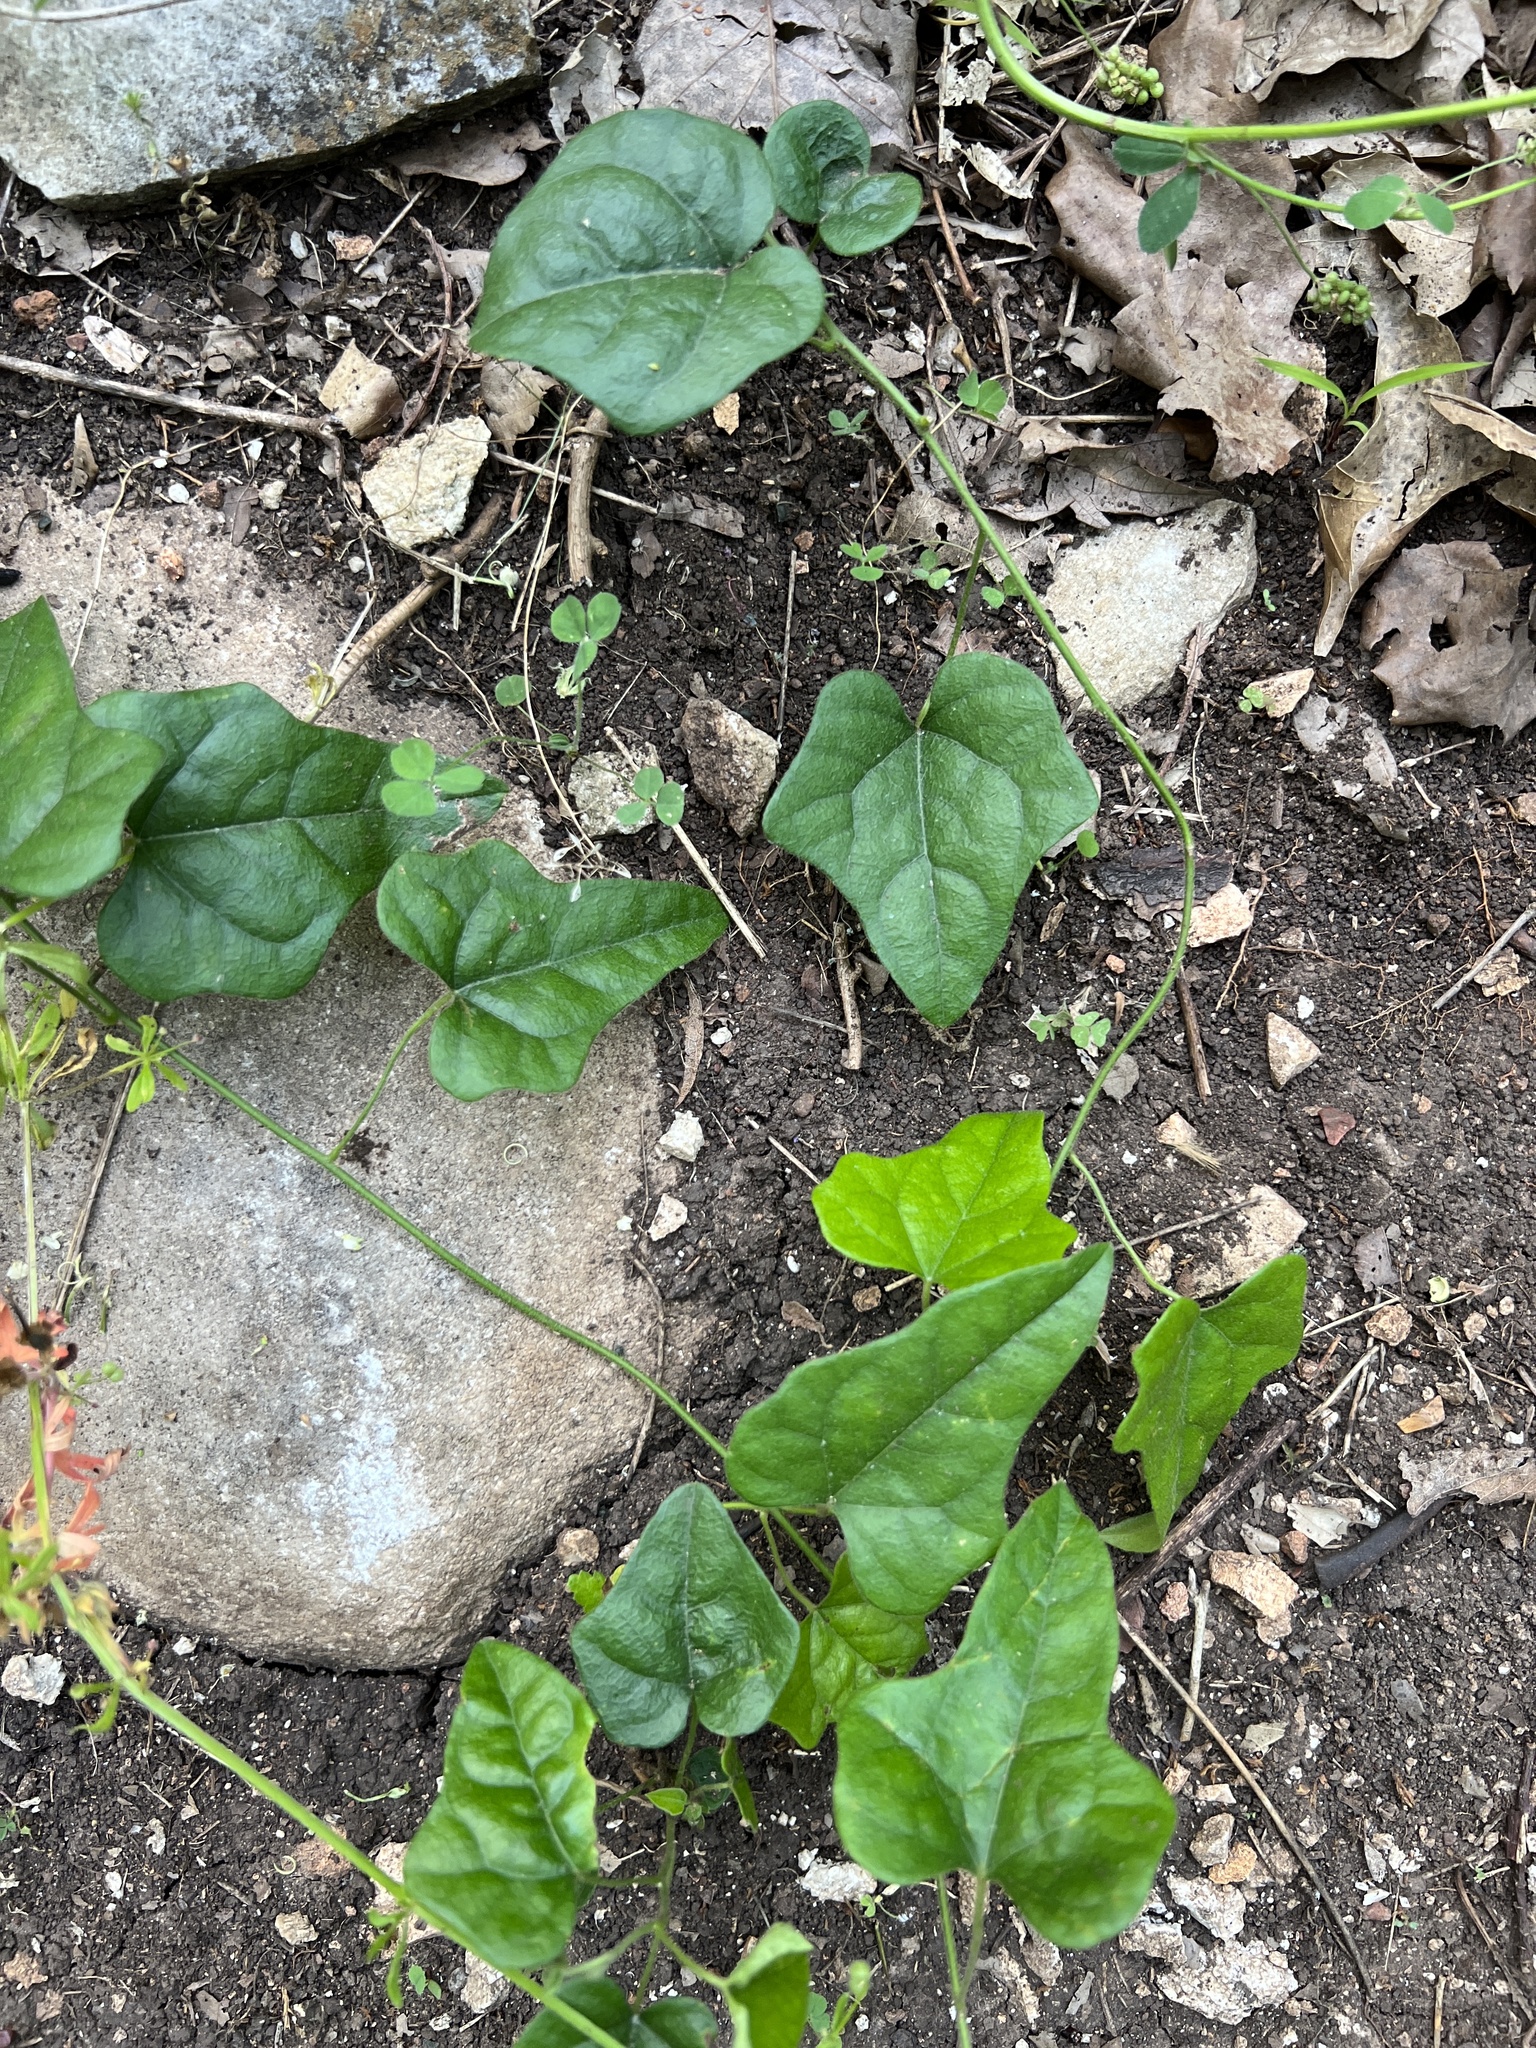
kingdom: Plantae
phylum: Tracheophyta
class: Magnoliopsida
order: Ranunculales
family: Menispermaceae
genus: Cocculus
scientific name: Cocculus carolinus
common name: Carolina moonseed
